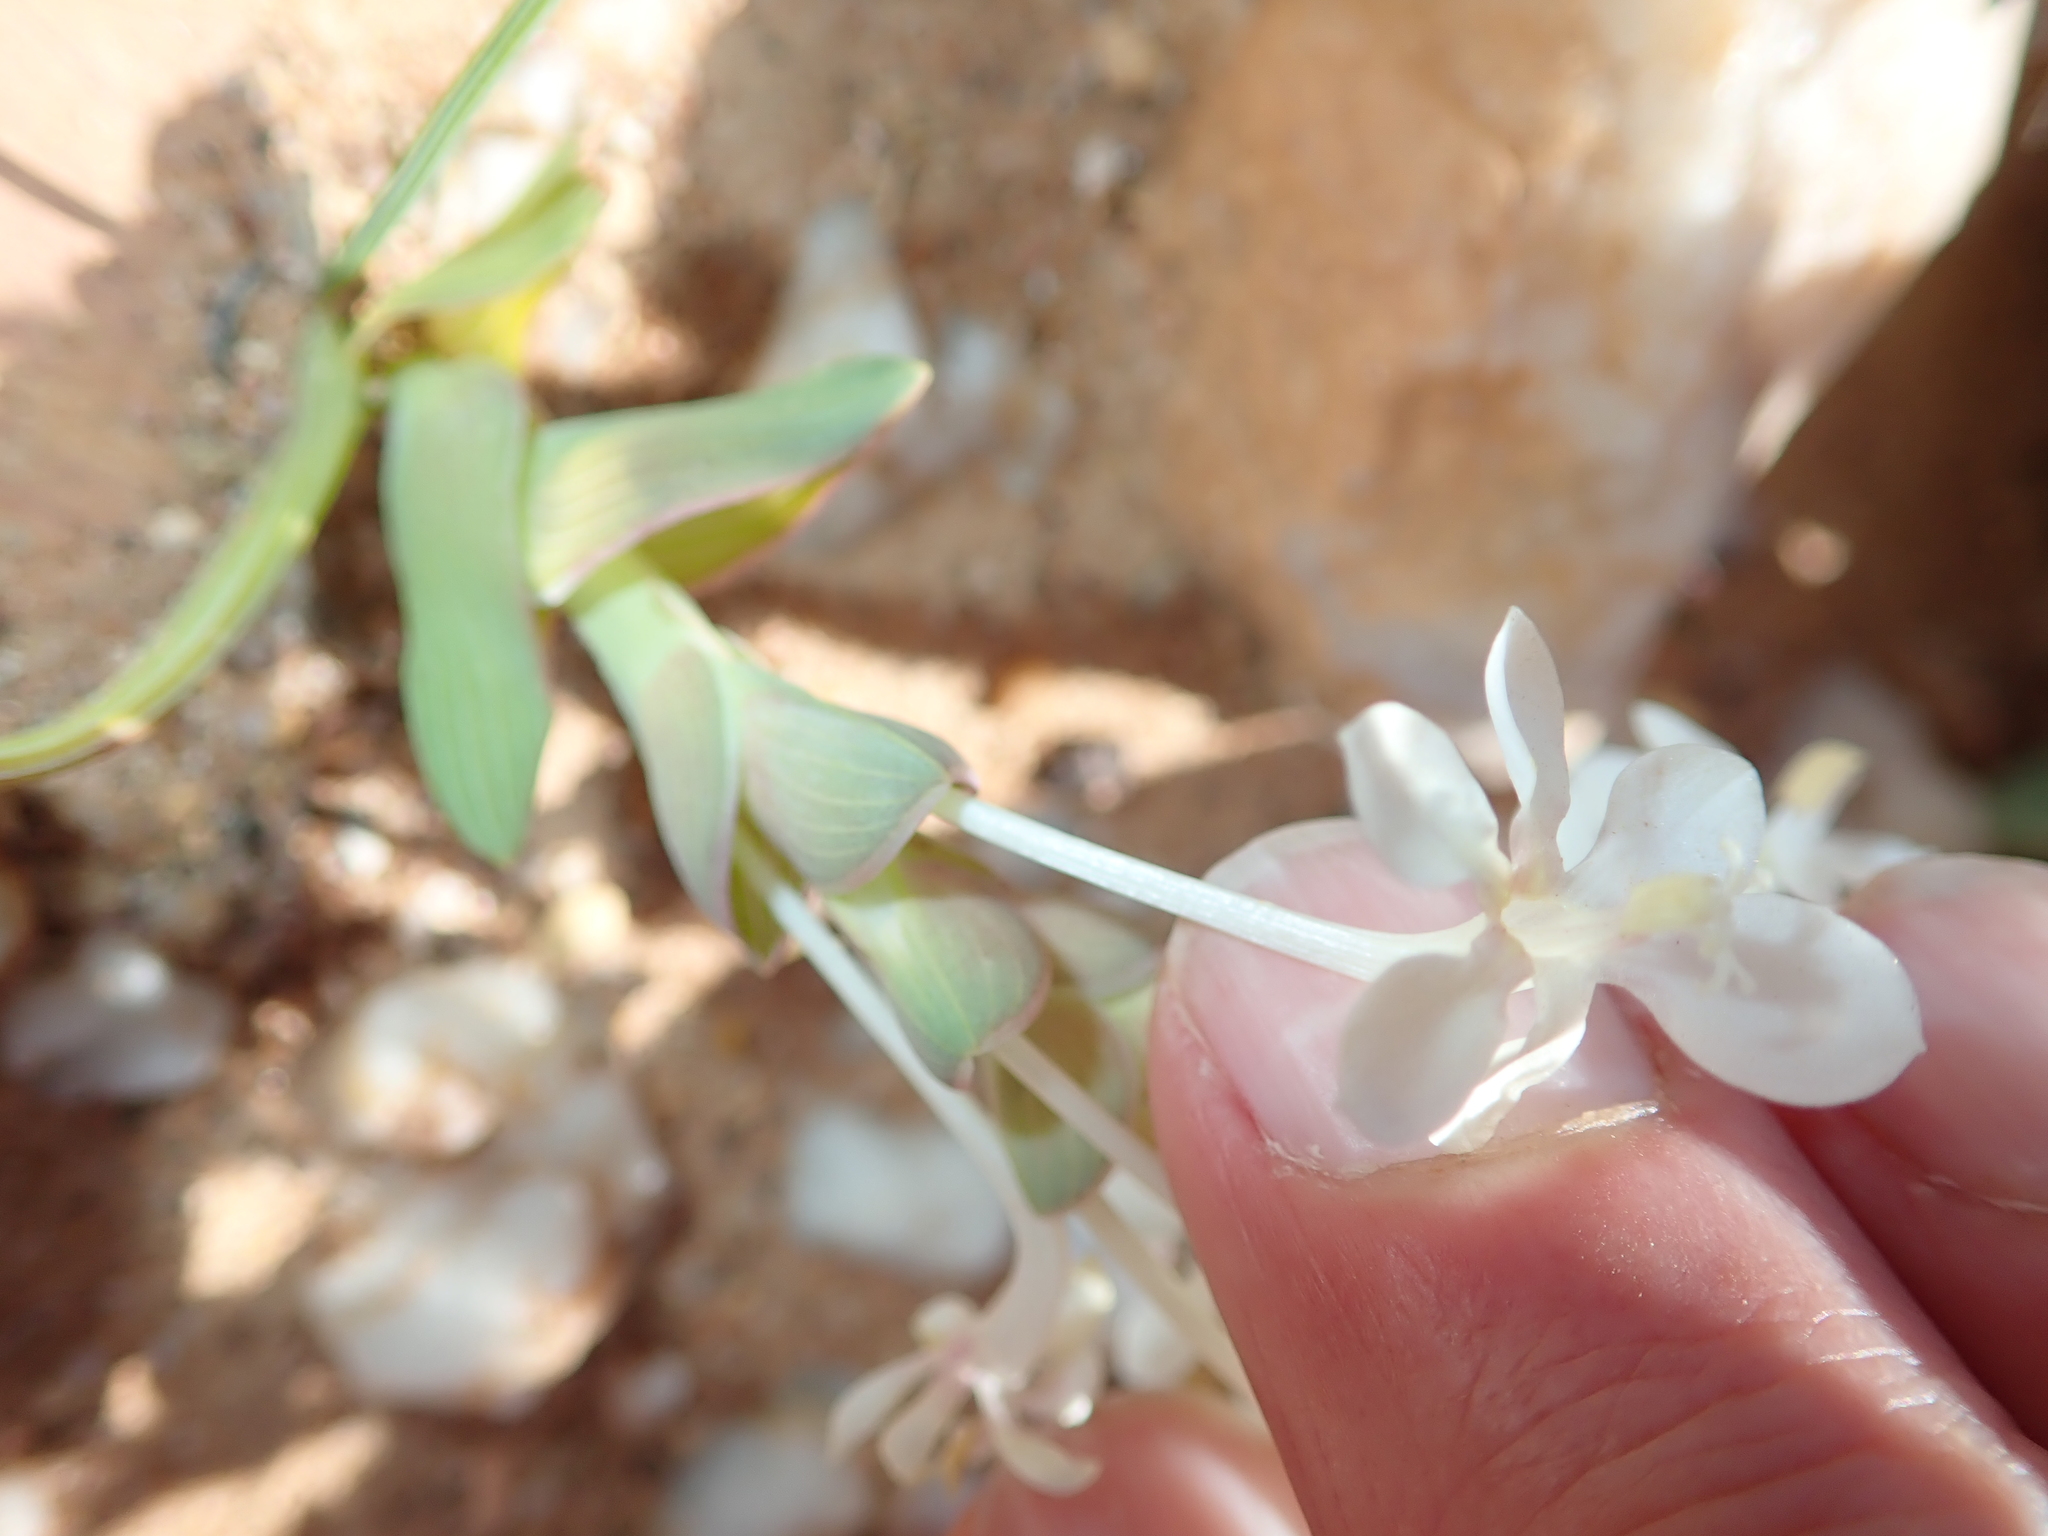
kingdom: Plantae
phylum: Tracheophyta
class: Liliopsida
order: Asparagales
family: Iridaceae
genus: Lapeirousia
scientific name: Lapeirousia pyramidalis
